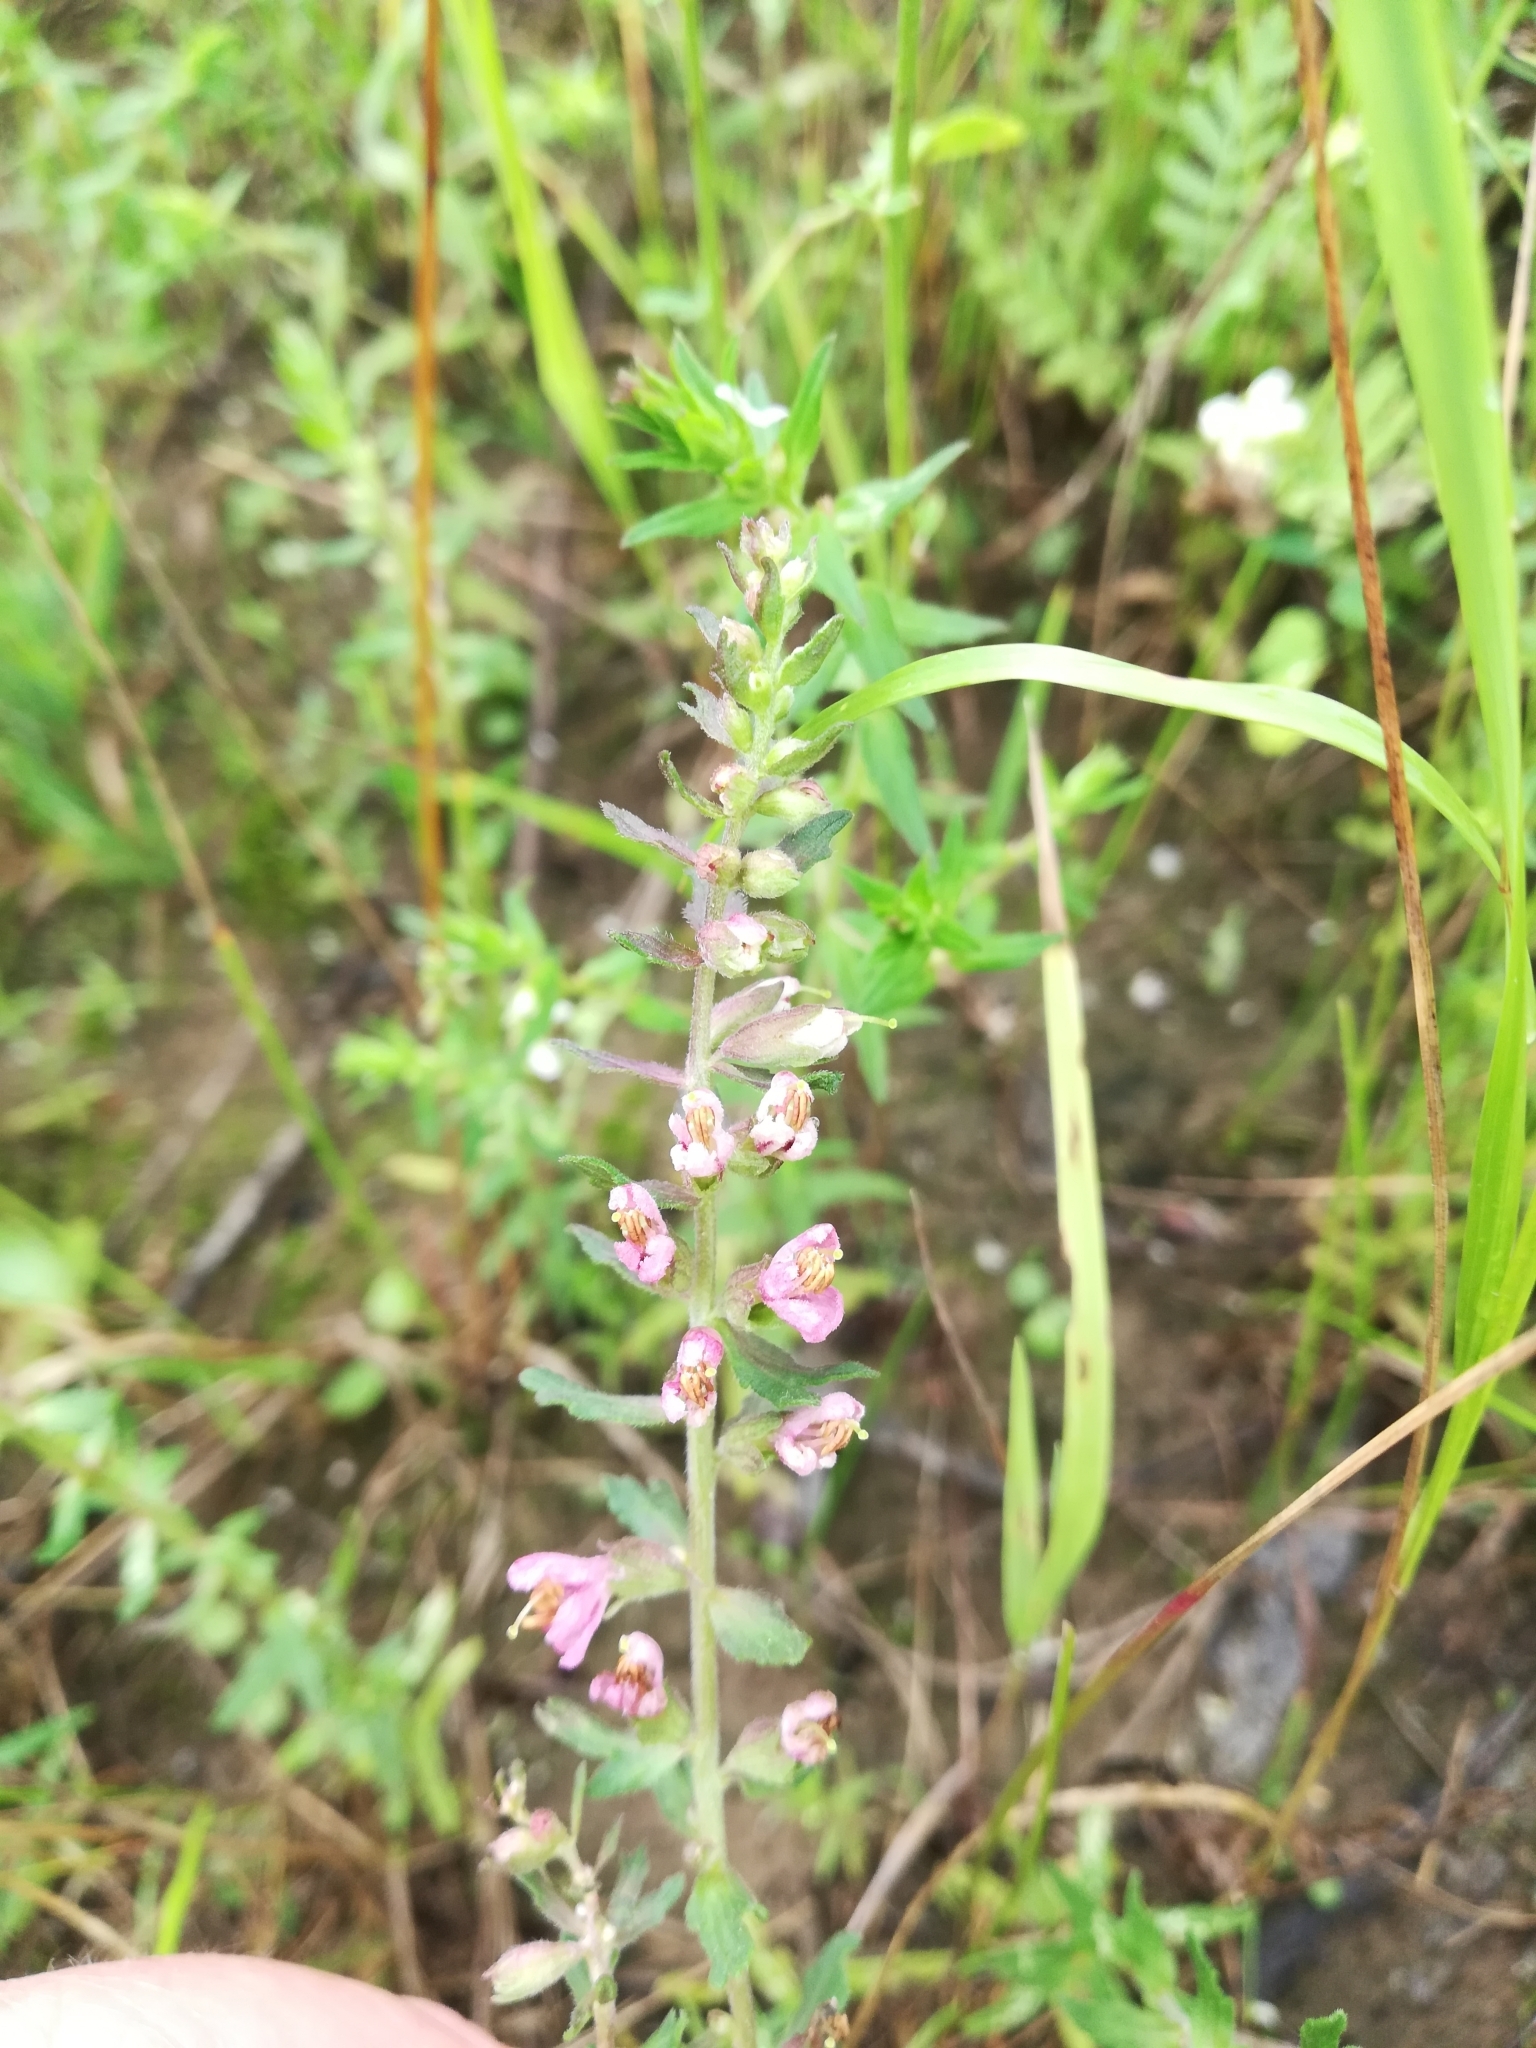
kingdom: Plantae
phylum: Tracheophyta
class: Magnoliopsida
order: Lamiales
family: Orobanchaceae
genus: Odontites
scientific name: Odontites vulgaris
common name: Broomrape
